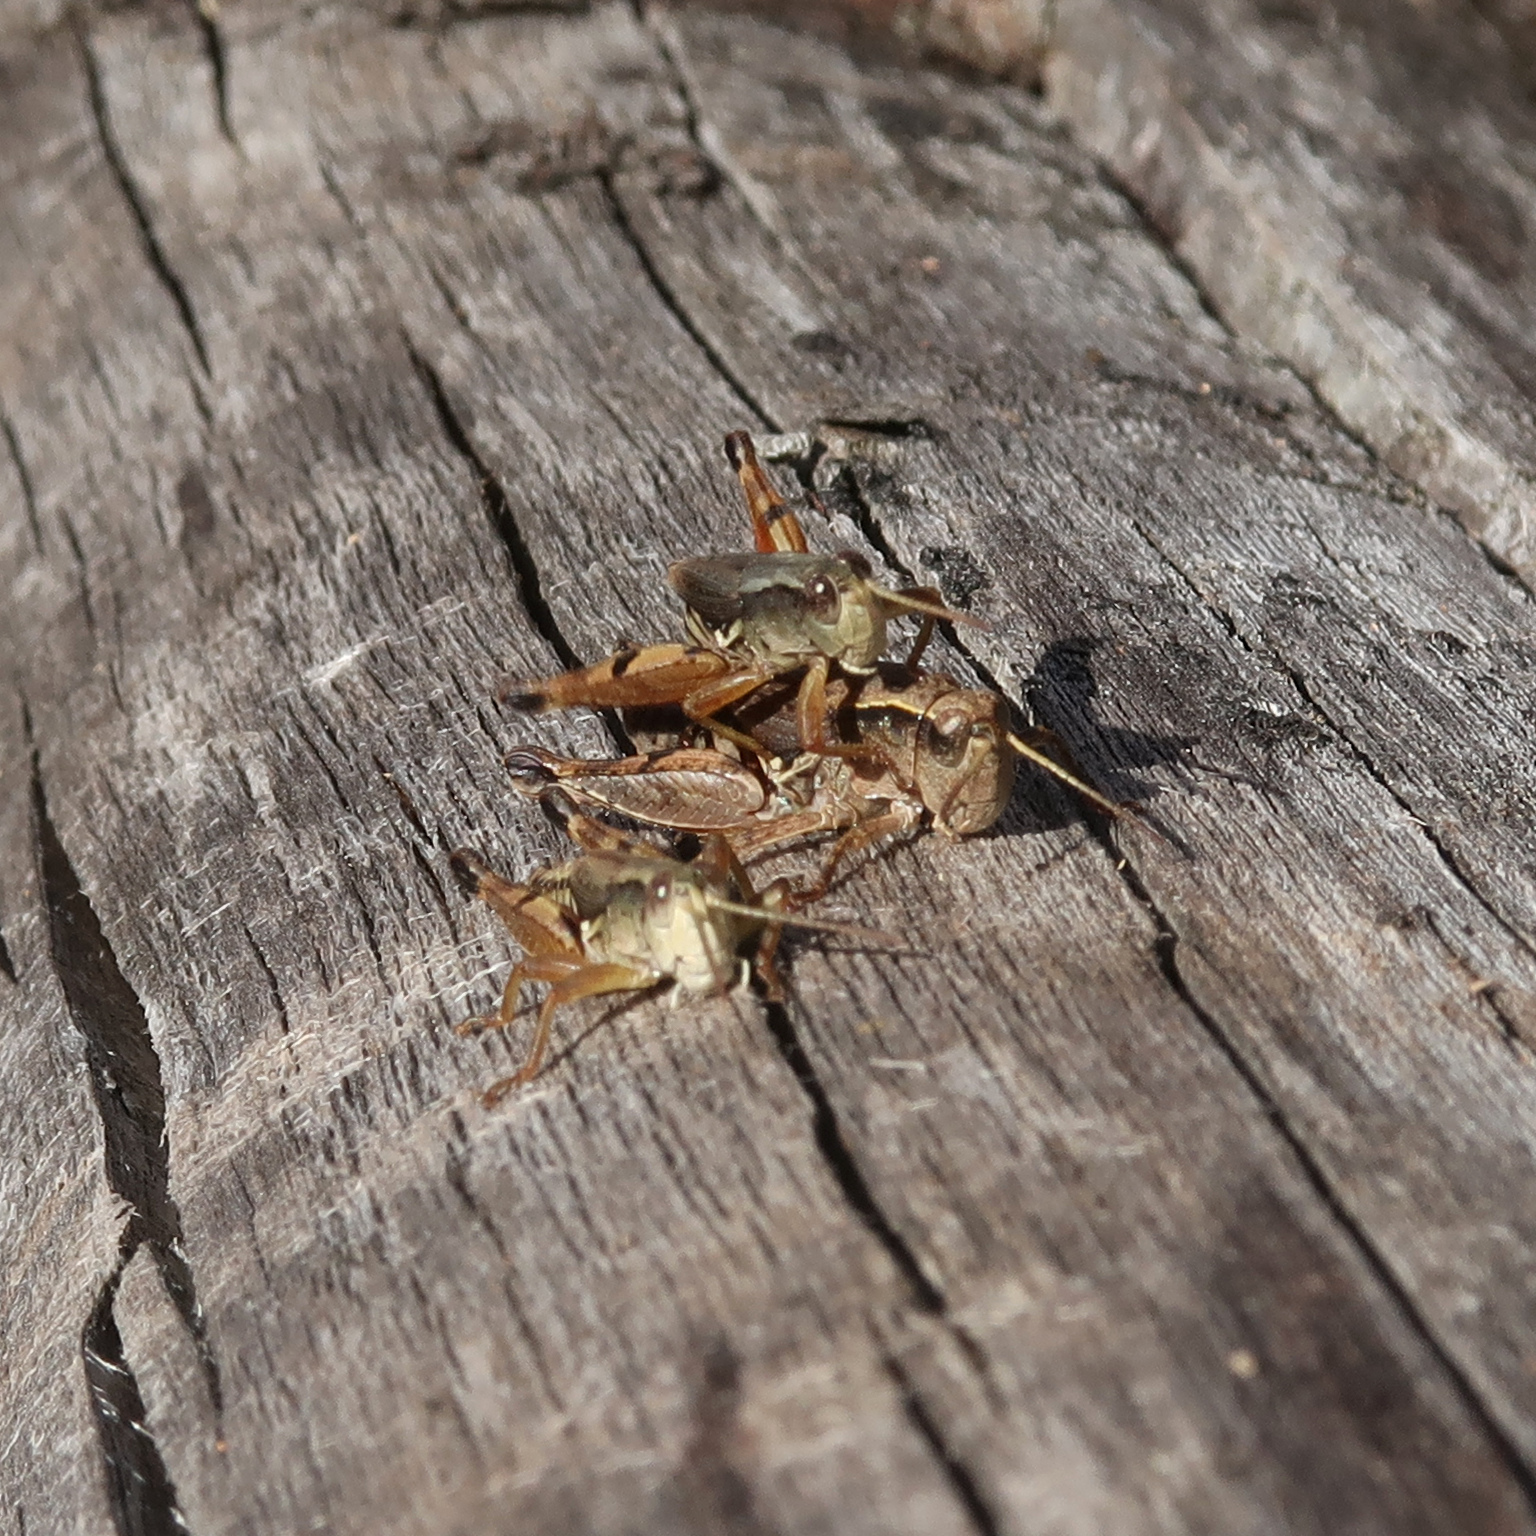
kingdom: Animalia
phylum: Arthropoda
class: Insecta
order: Orthoptera
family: Acrididae
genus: Phaulacridium
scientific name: Phaulacridium vittatum
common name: Wingless grasshopper
